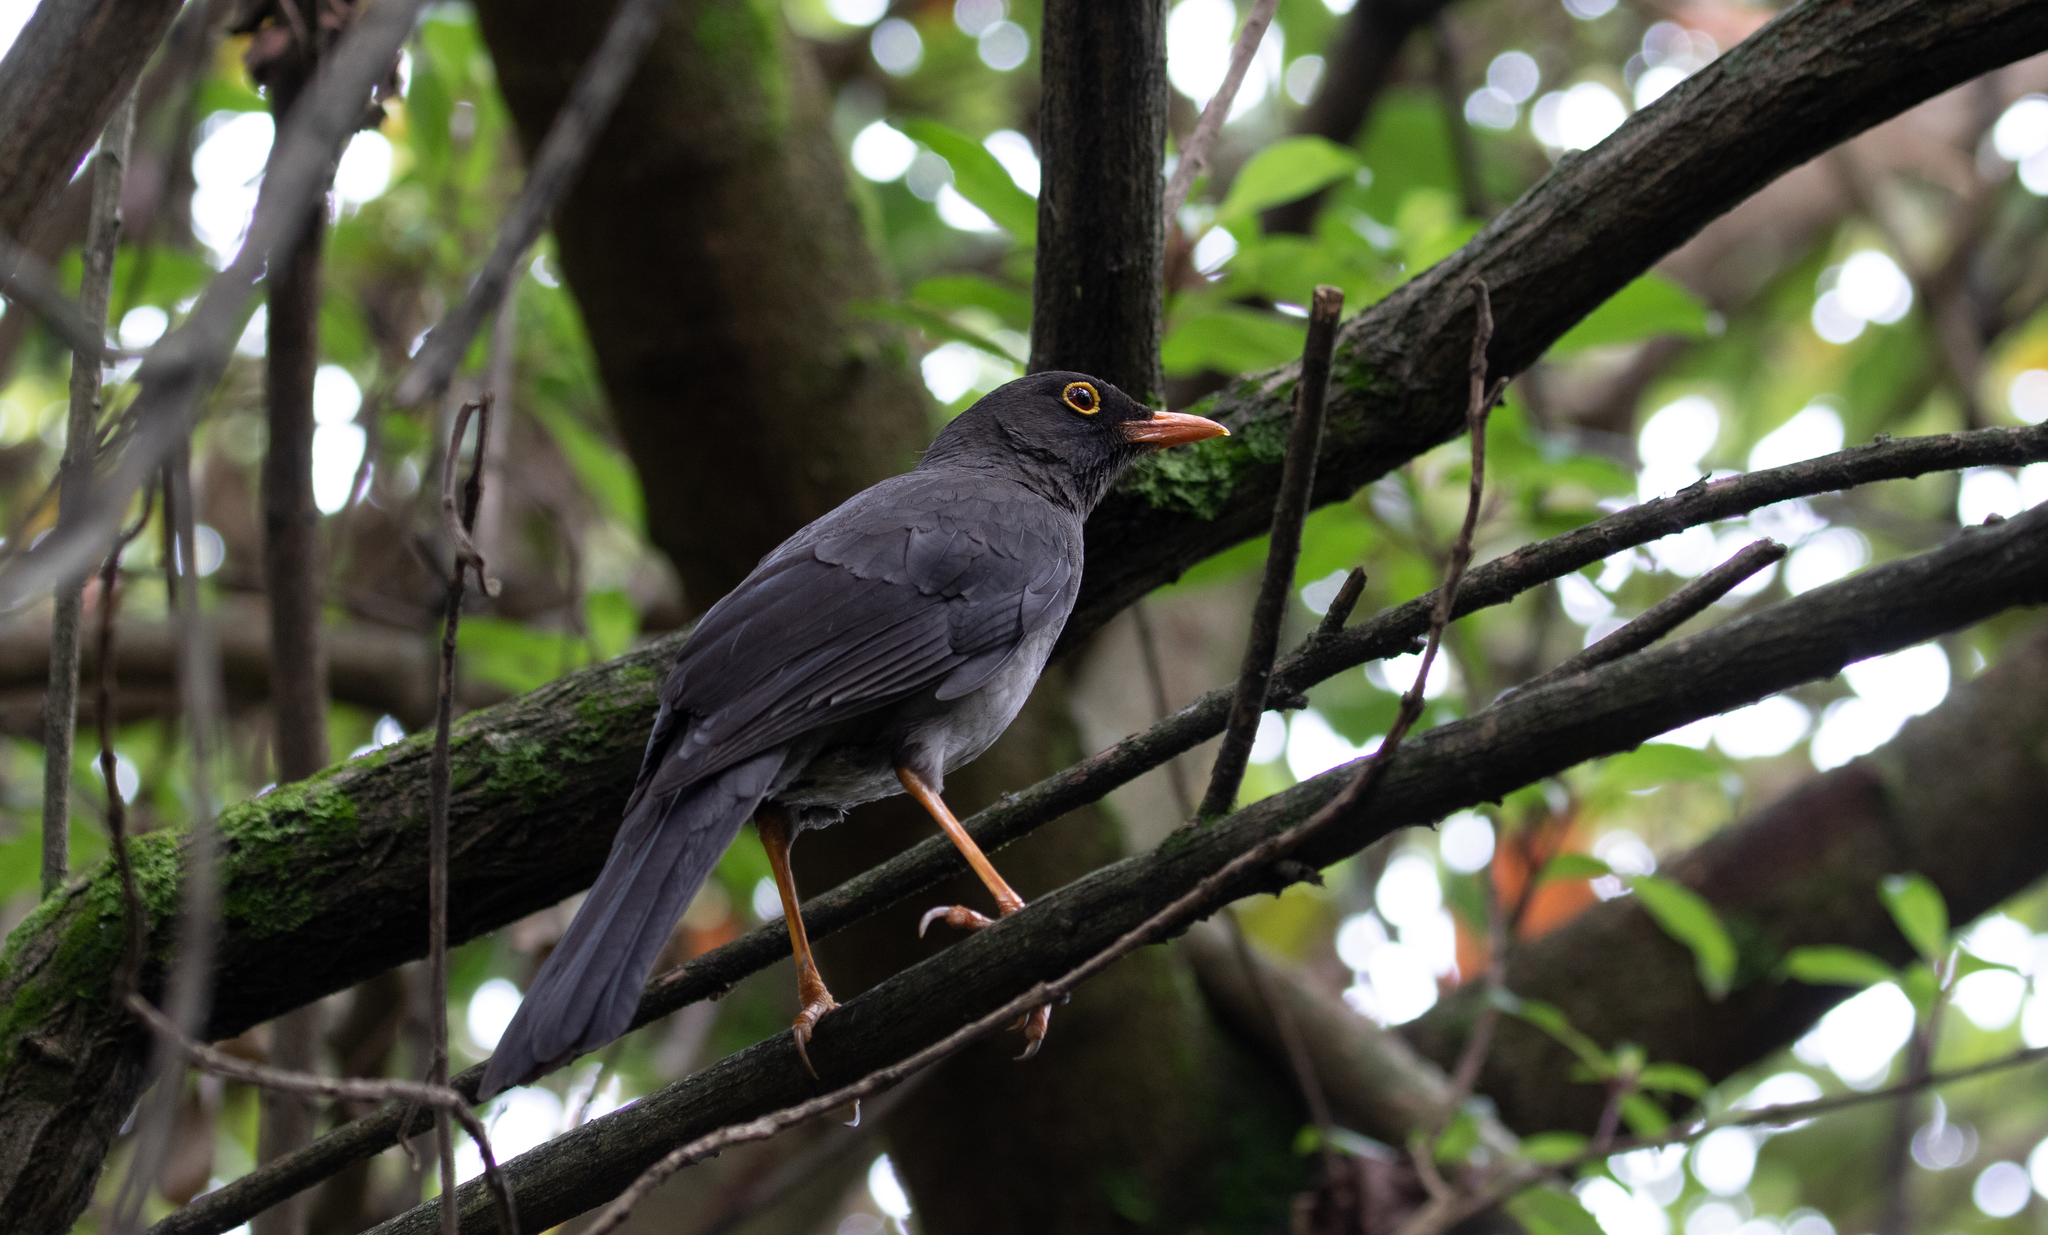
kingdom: Animalia
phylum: Chordata
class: Aves
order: Passeriformes
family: Turdidae
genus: Turdus
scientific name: Turdus fuscater
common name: Great thrush
